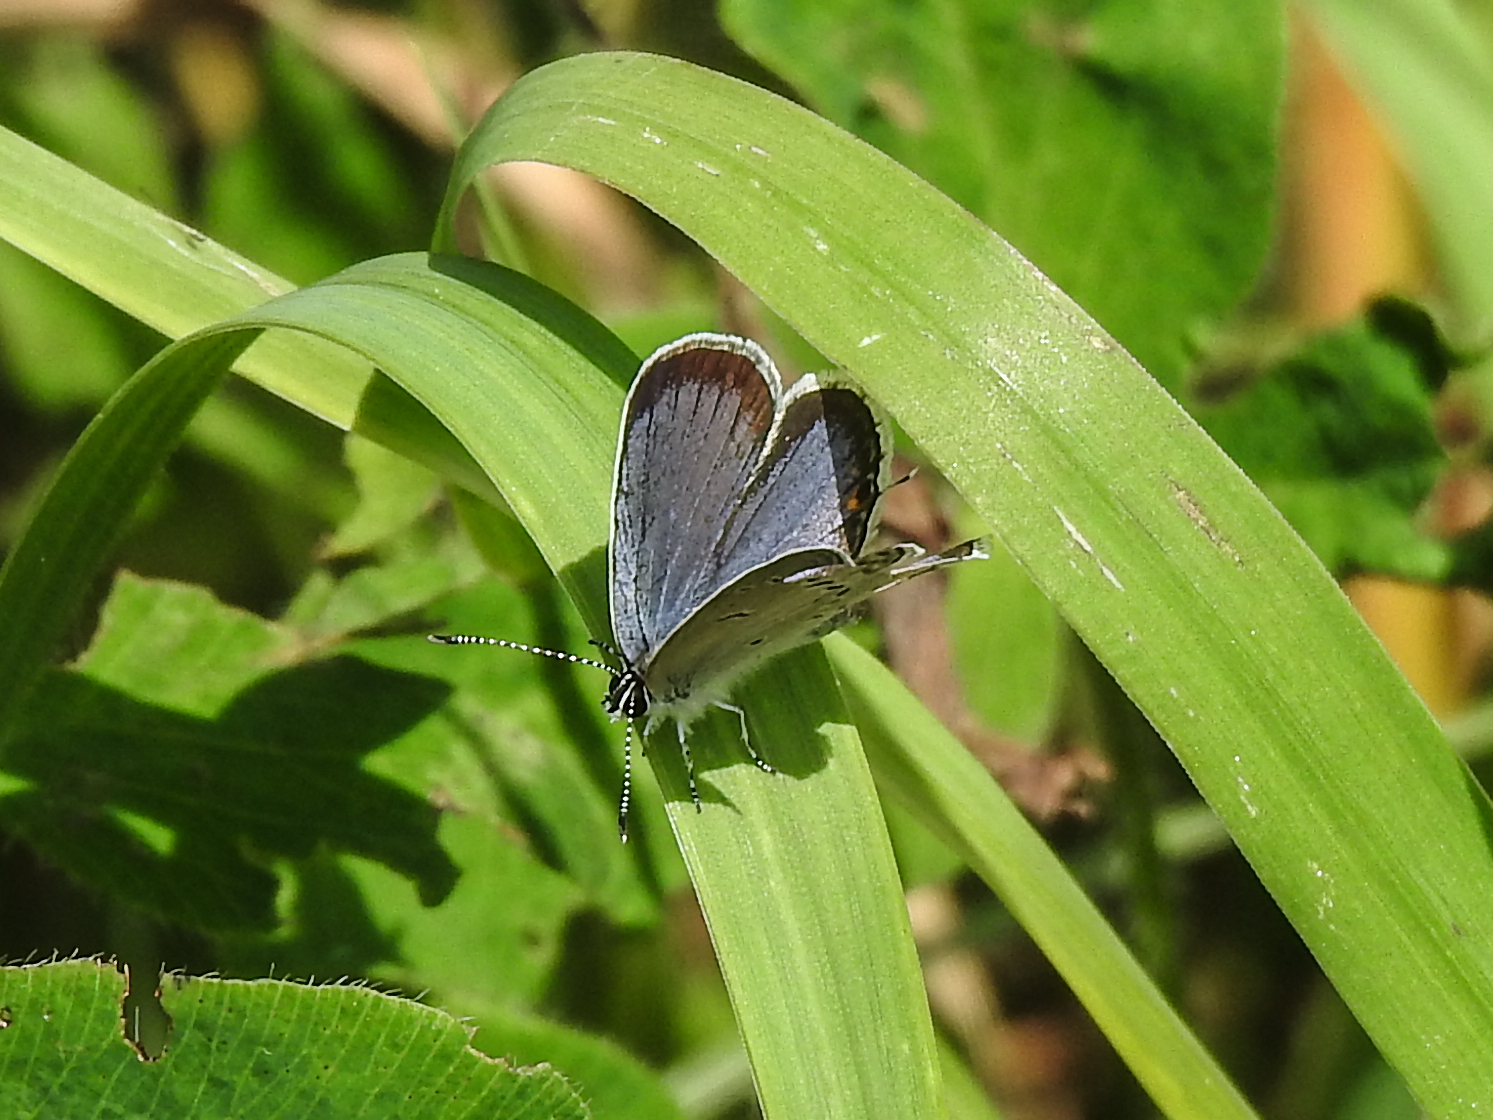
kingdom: Animalia
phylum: Arthropoda
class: Insecta
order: Lepidoptera
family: Lycaenidae
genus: Elkalyce
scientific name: Elkalyce comyntas
